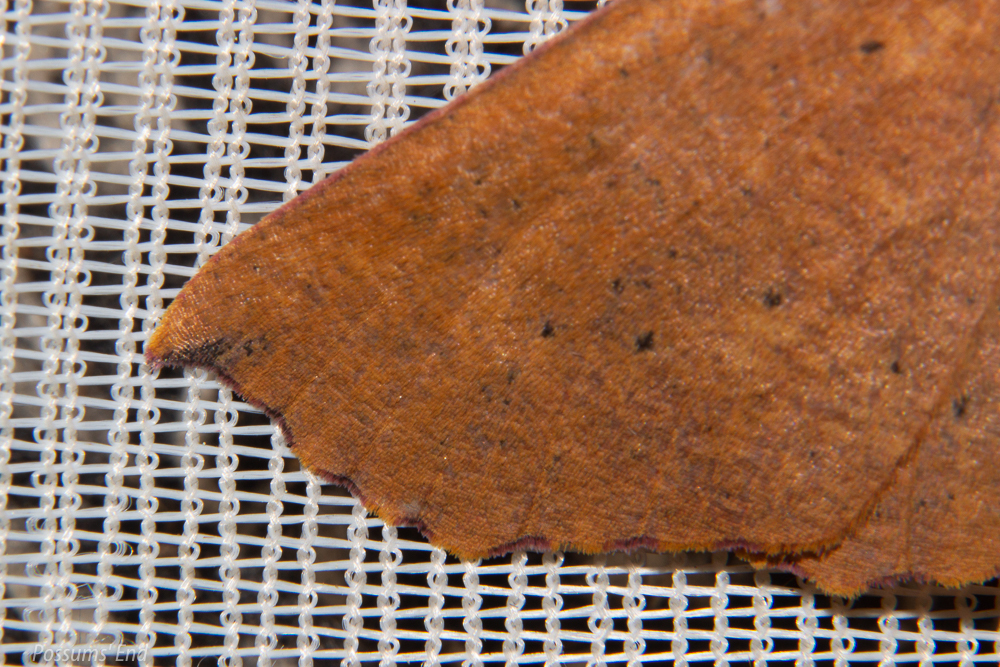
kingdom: Animalia
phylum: Arthropoda
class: Insecta
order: Lepidoptera
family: Geometridae
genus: Xyridacma
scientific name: Xyridacma alectoraria
